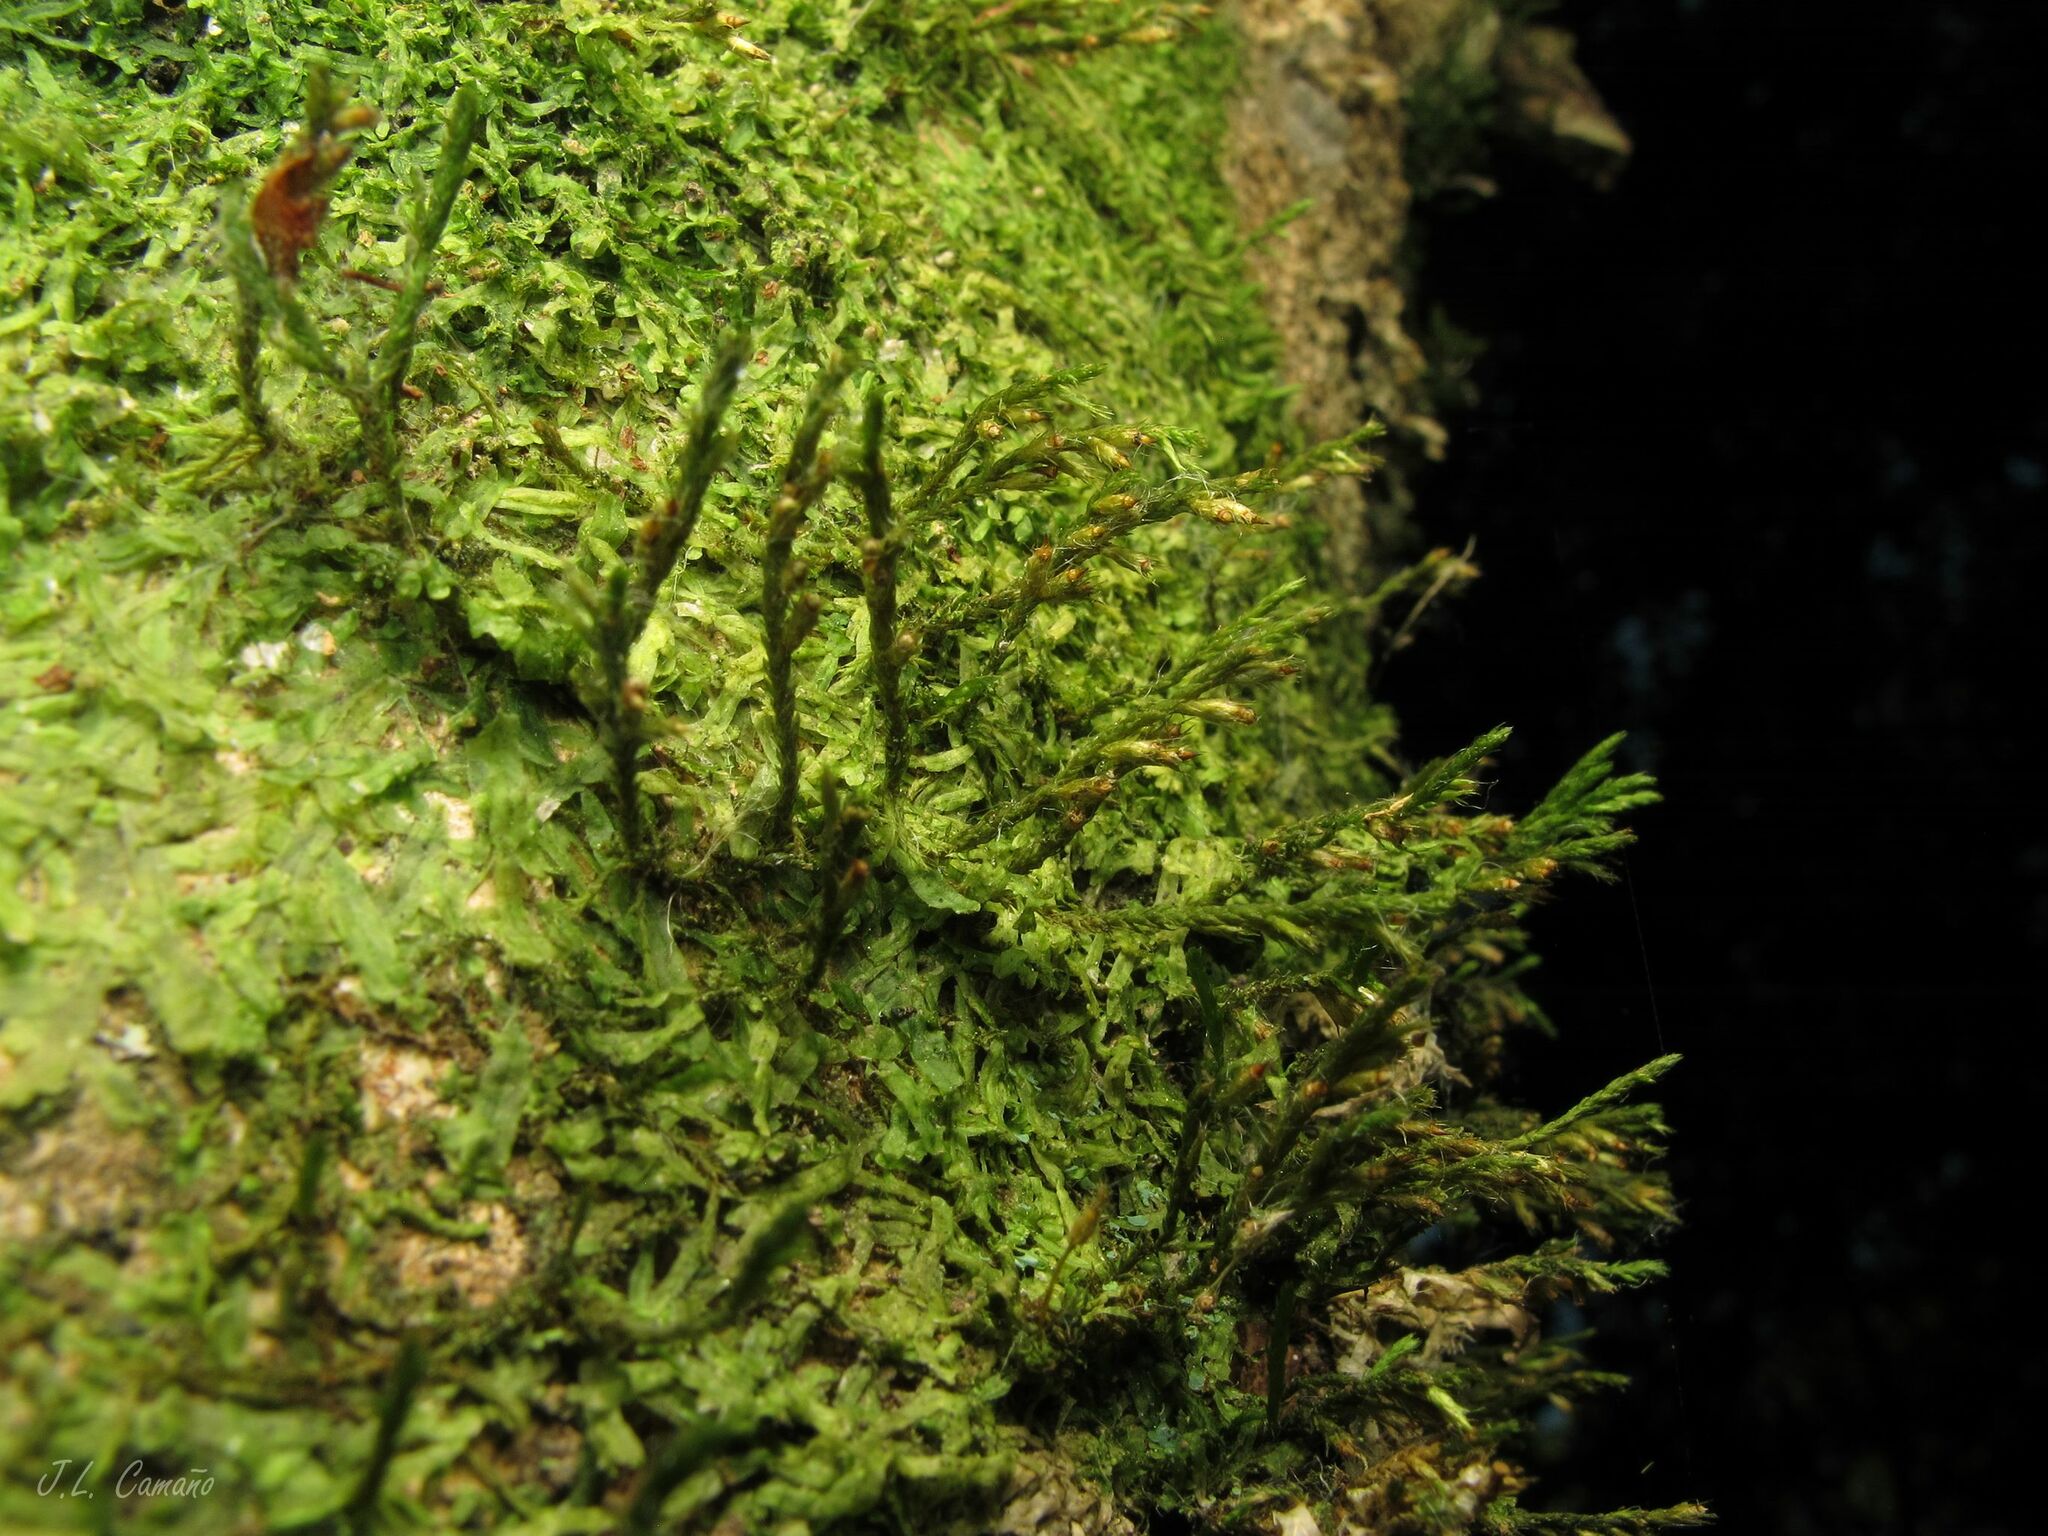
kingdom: Plantae
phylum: Bryophyta
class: Bryopsida
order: Hypnales
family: Cryphaeaceae
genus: Cryphaea
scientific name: Cryphaea heteromalla
